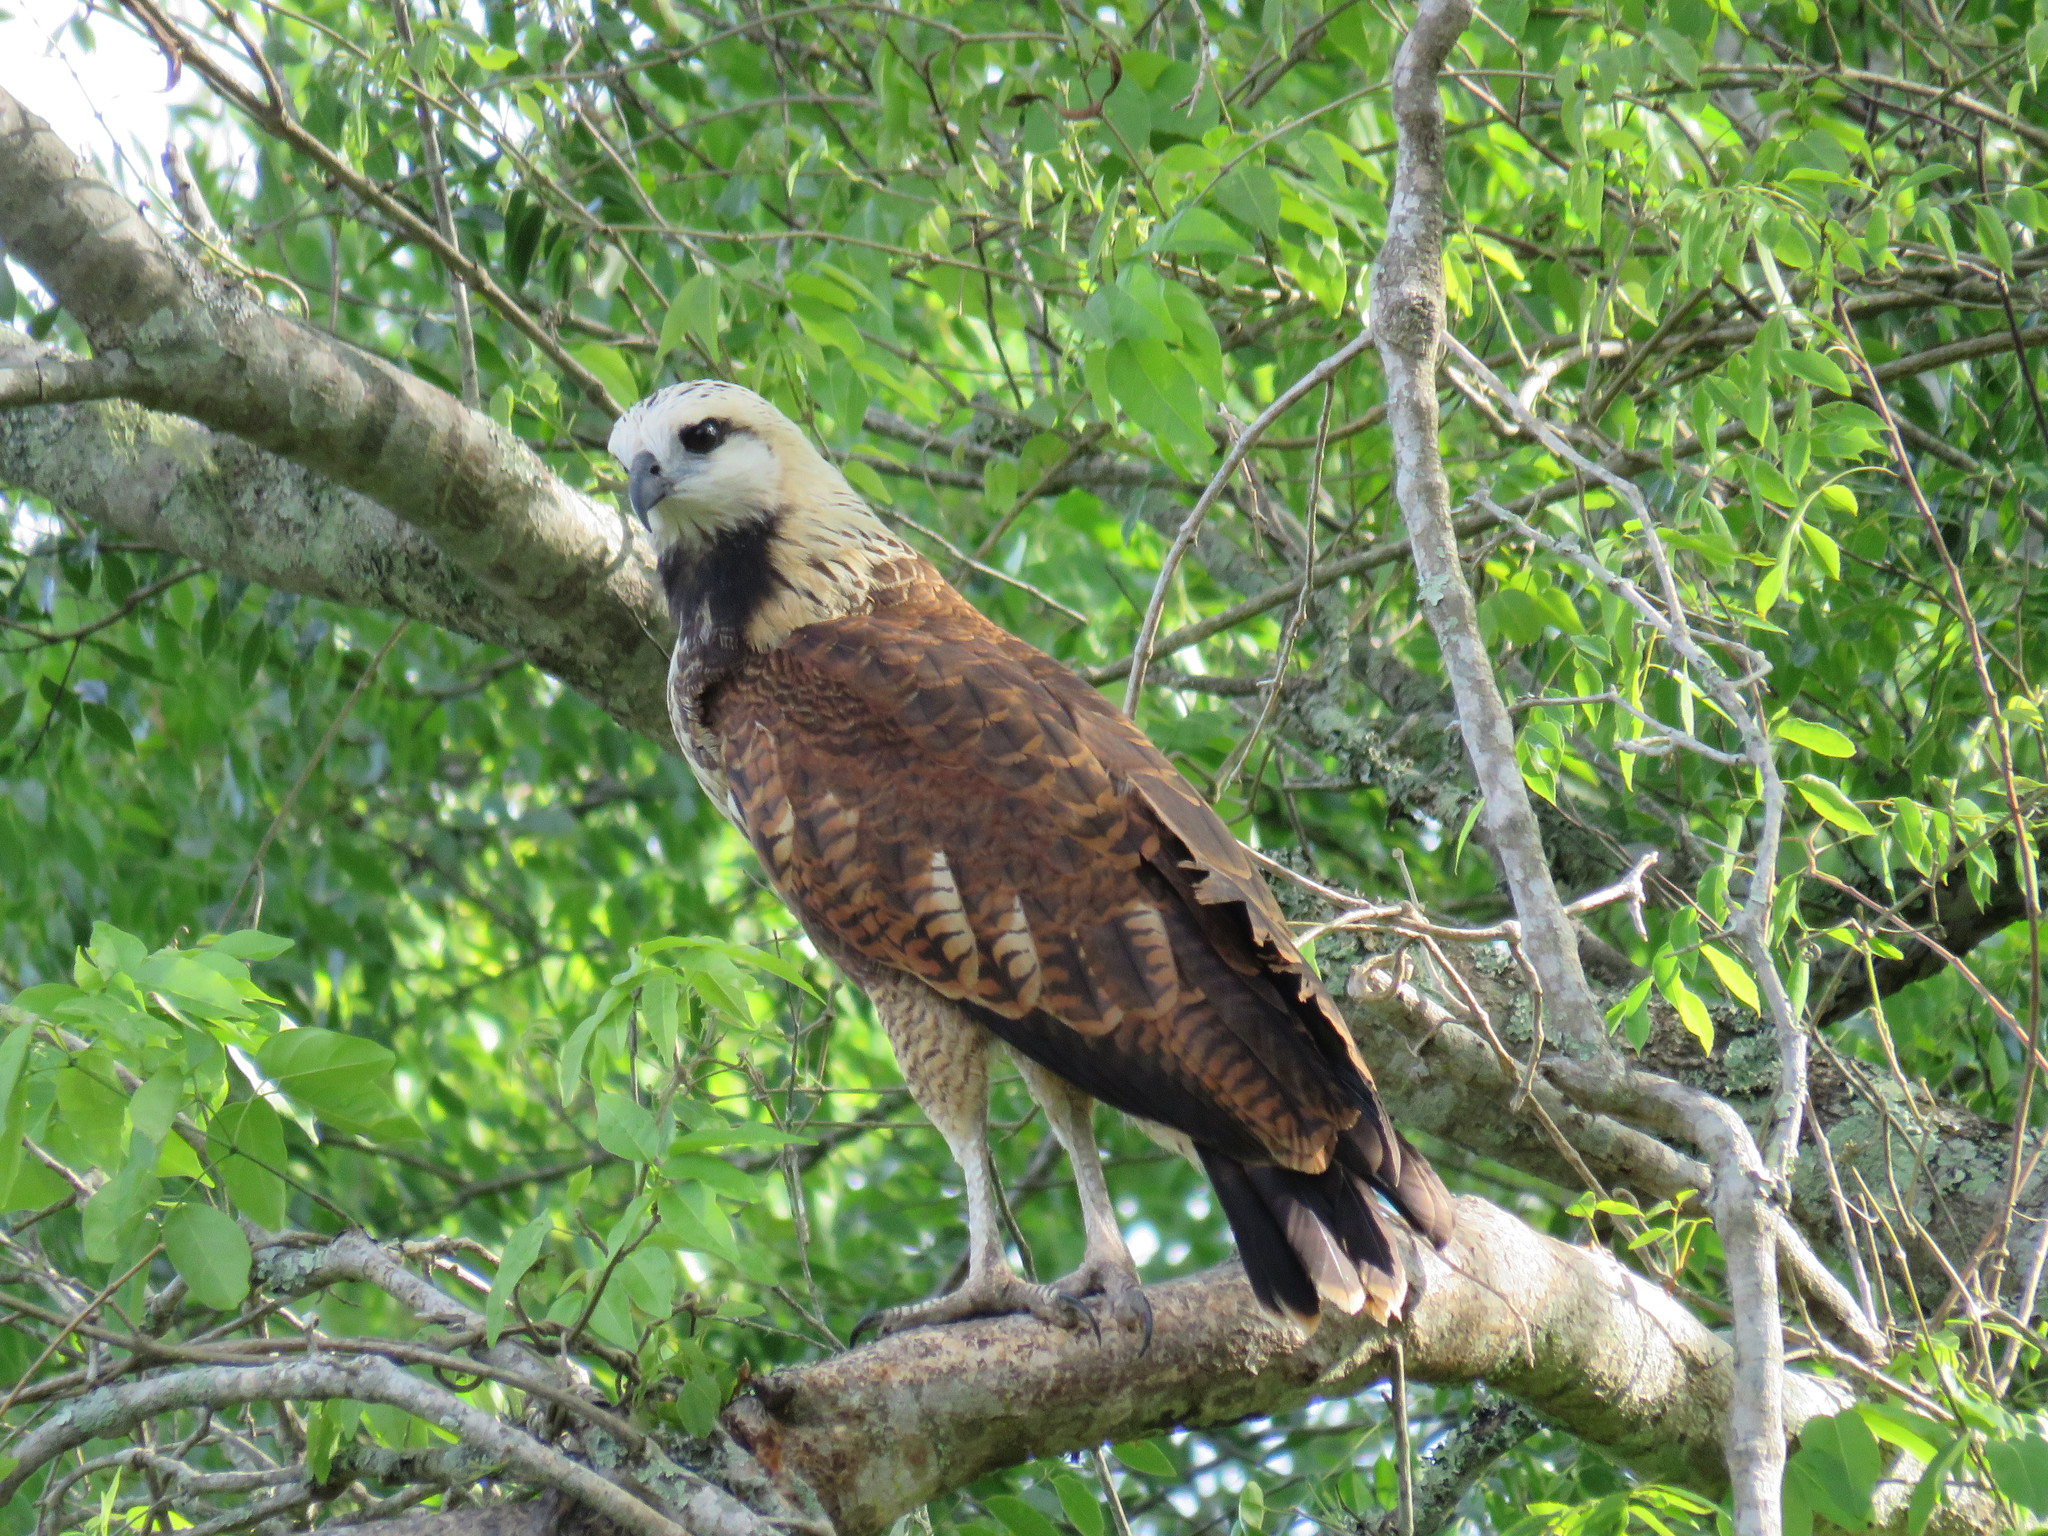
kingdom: Animalia
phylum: Chordata
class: Aves
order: Accipitriformes
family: Accipitridae
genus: Busarellus
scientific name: Busarellus nigricollis
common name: Black-collared hawk
